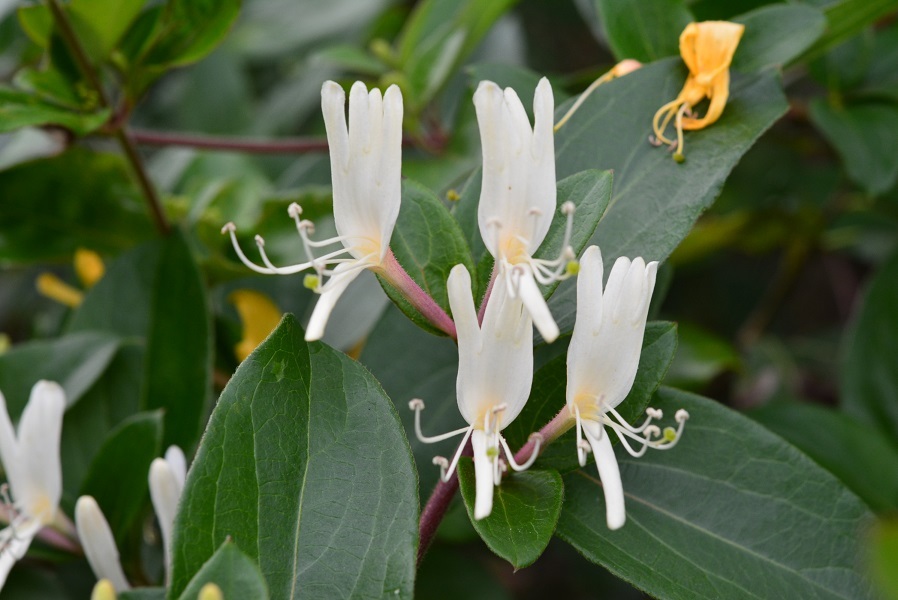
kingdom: Plantae
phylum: Tracheophyta
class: Magnoliopsida
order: Dipsacales
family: Caprifoliaceae
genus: Lonicera
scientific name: Lonicera japonica
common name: Japanese honeysuckle
